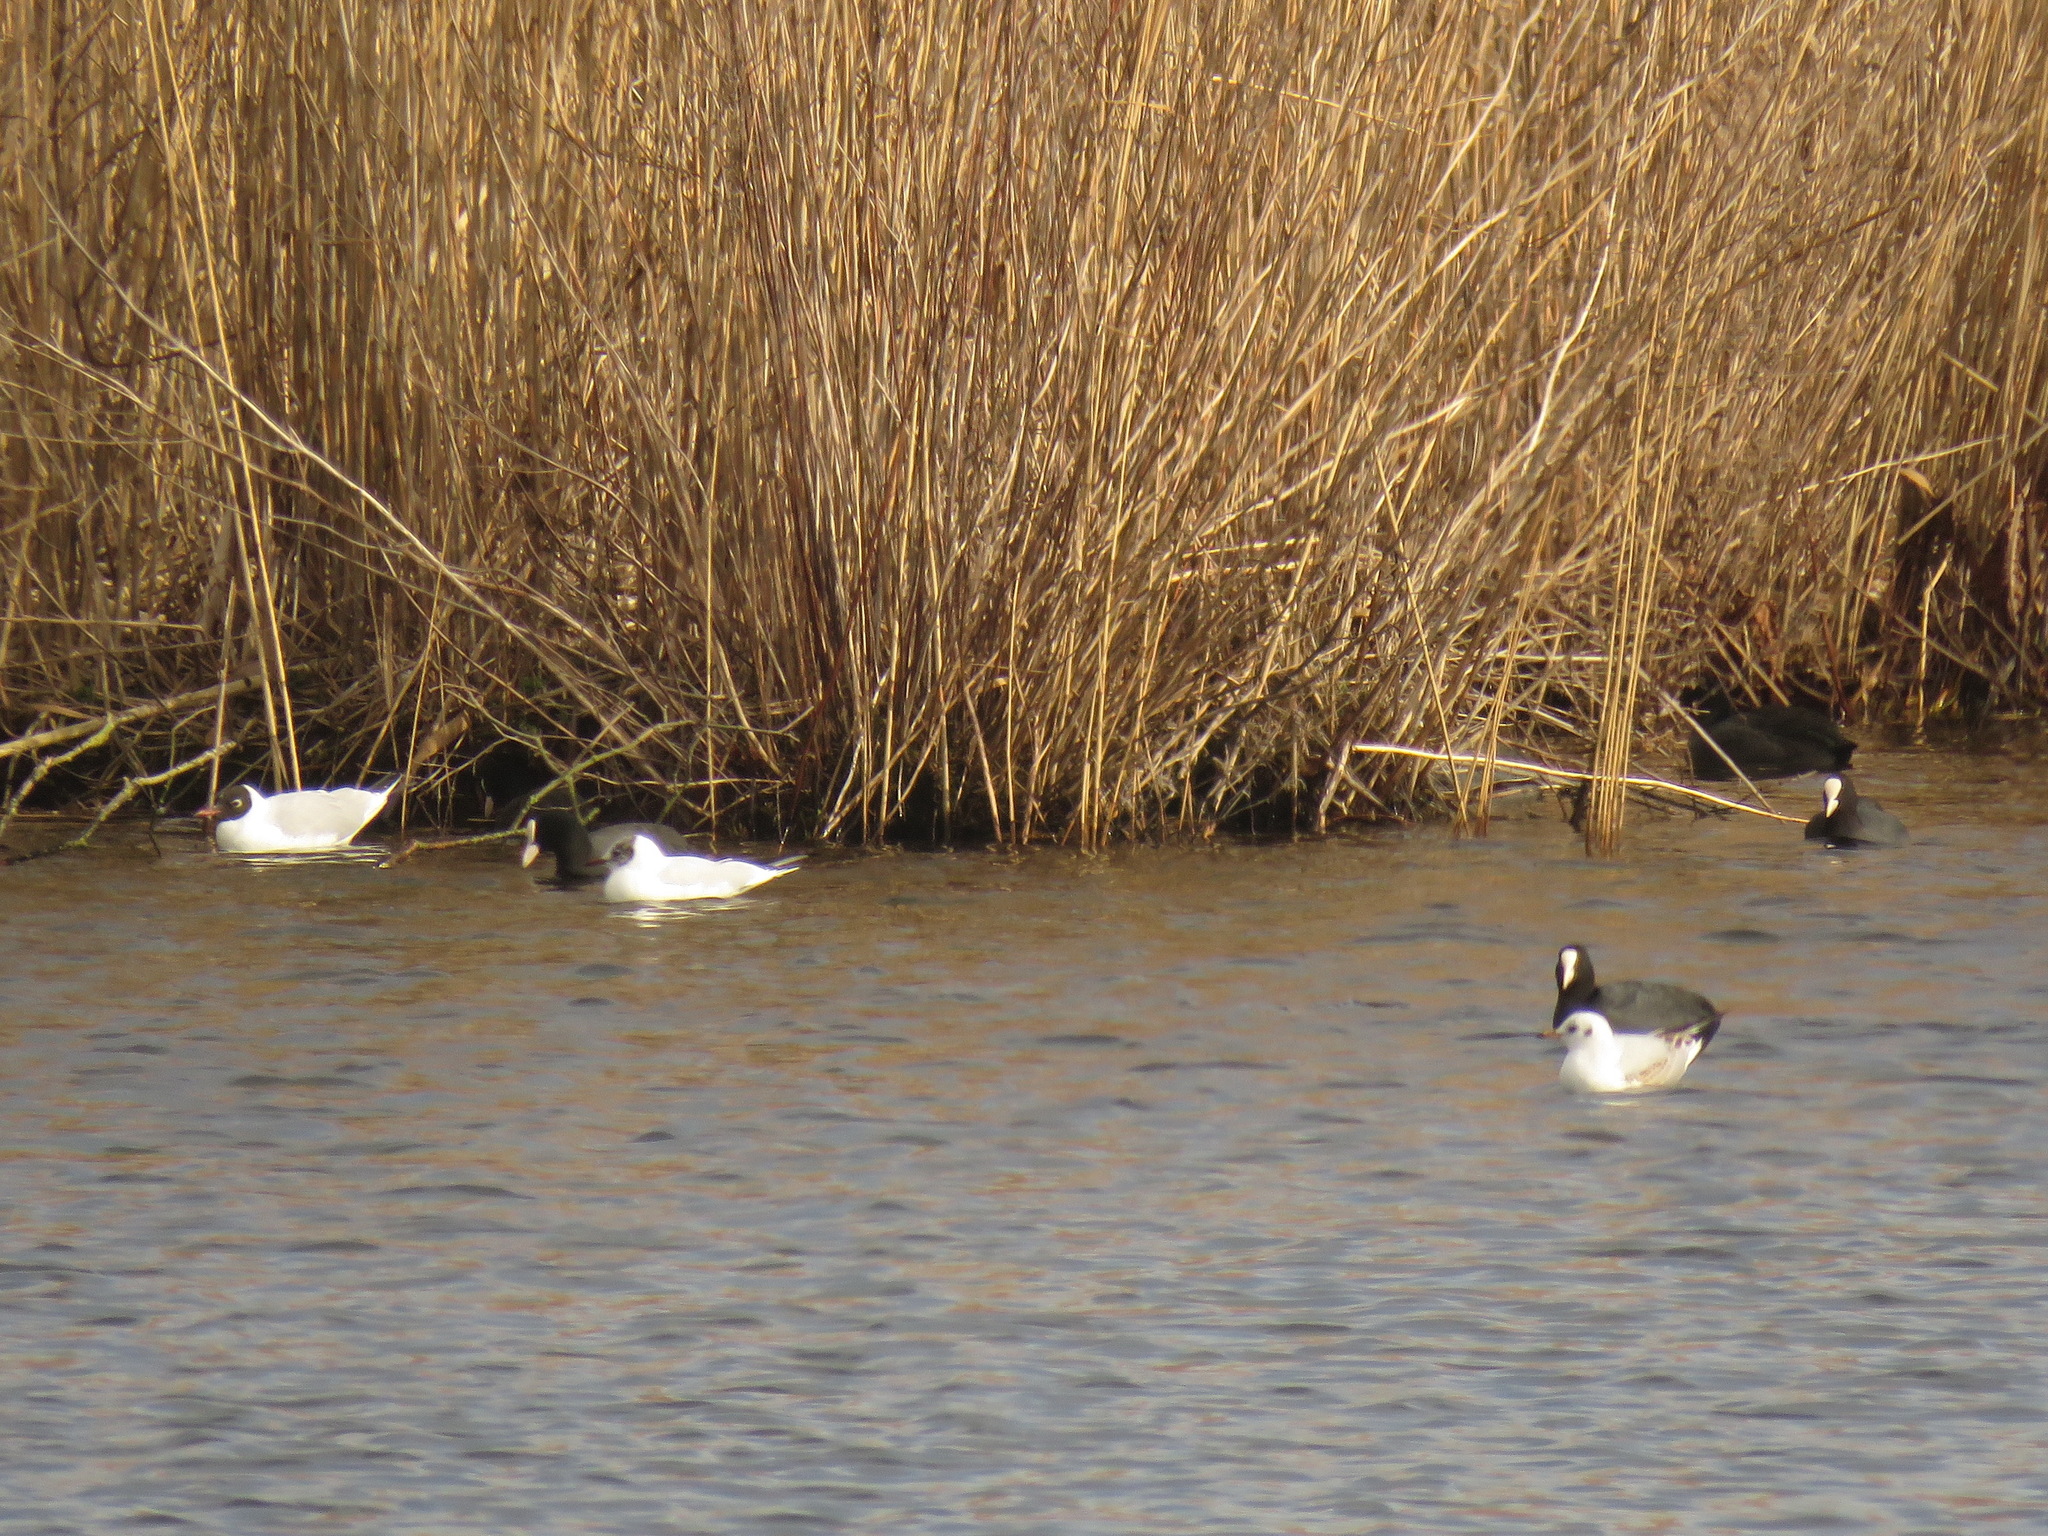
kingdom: Animalia
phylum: Chordata
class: Aves
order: Charadriiformes
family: Laridae
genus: Chroicocephalus
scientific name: Chroicocephalus ridibundus
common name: Black-headed gull
